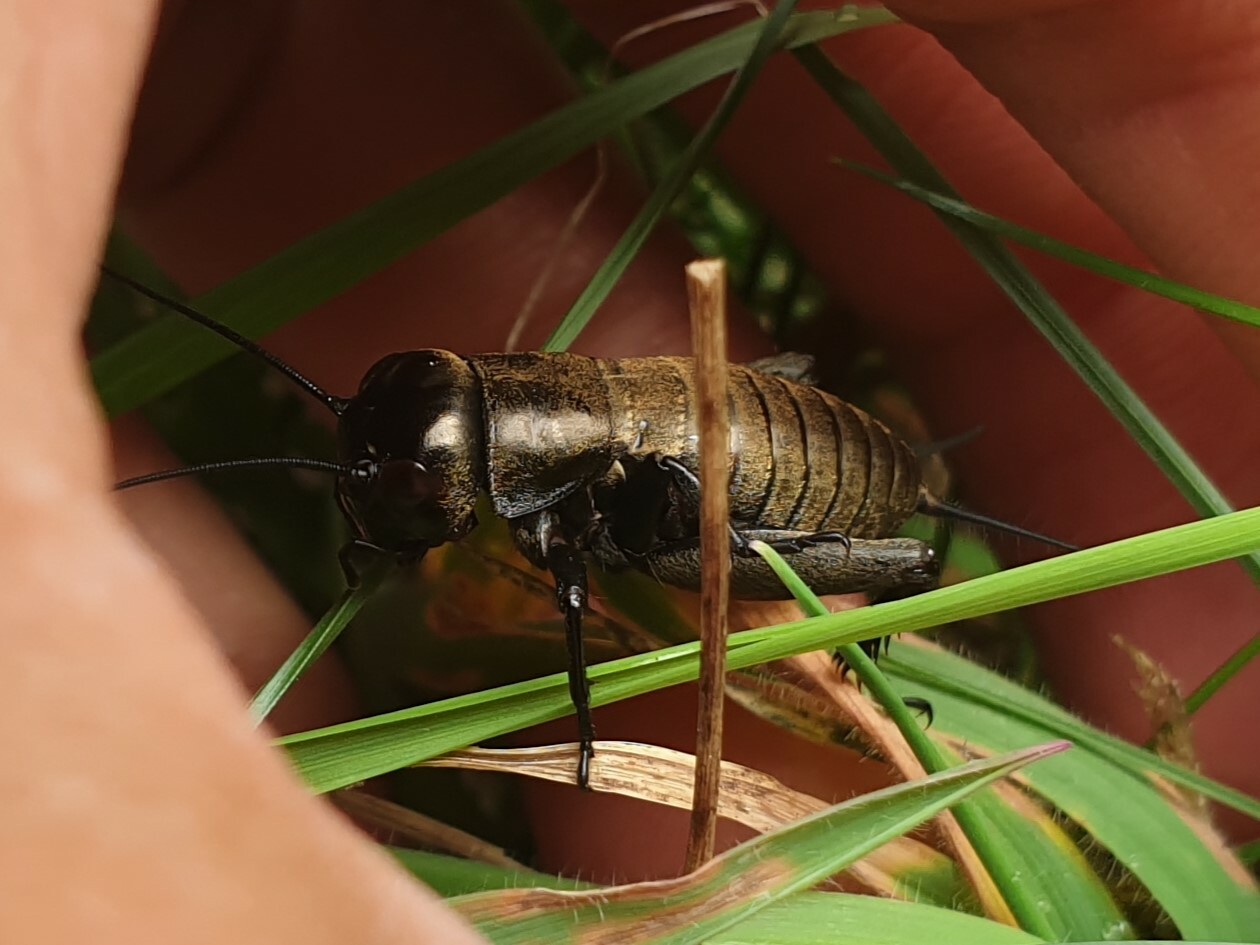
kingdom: Animalia
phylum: Arthropoda
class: Insecta
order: Orthoptera
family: Gryllidae
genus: Gryllus
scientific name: Gryllus campestris
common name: Field cricket
